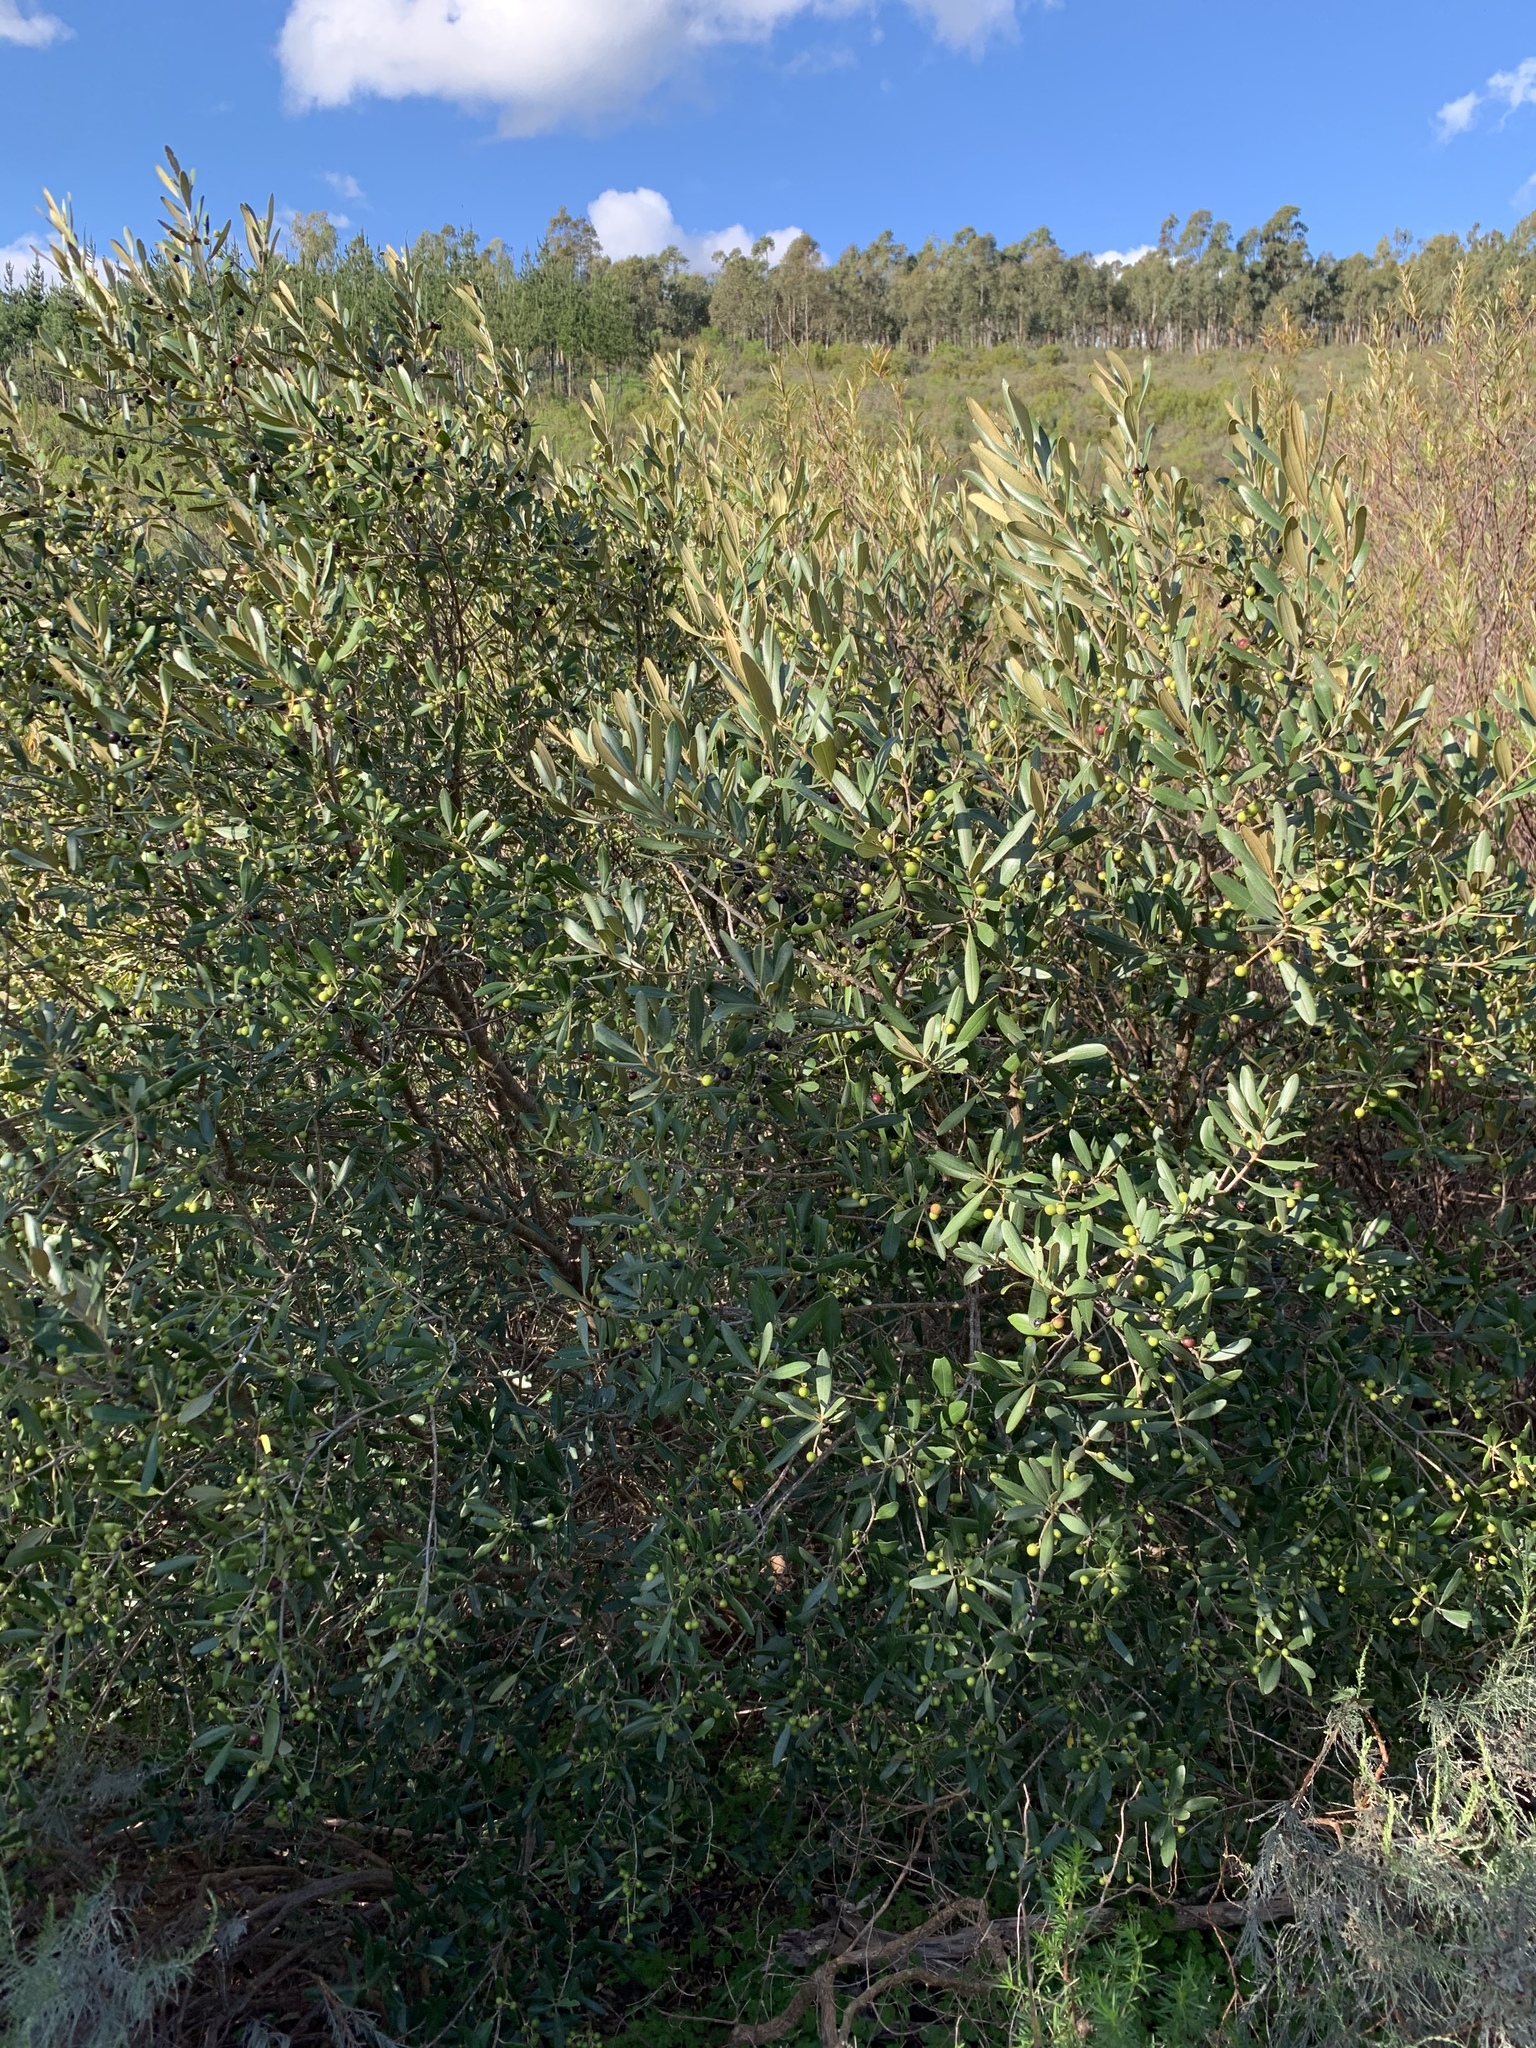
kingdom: Plantae
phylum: Tracheophyta
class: Magnoliopsida
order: Lamiales
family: Oleaceae
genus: Olea
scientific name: Olea europaea
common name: Olive
